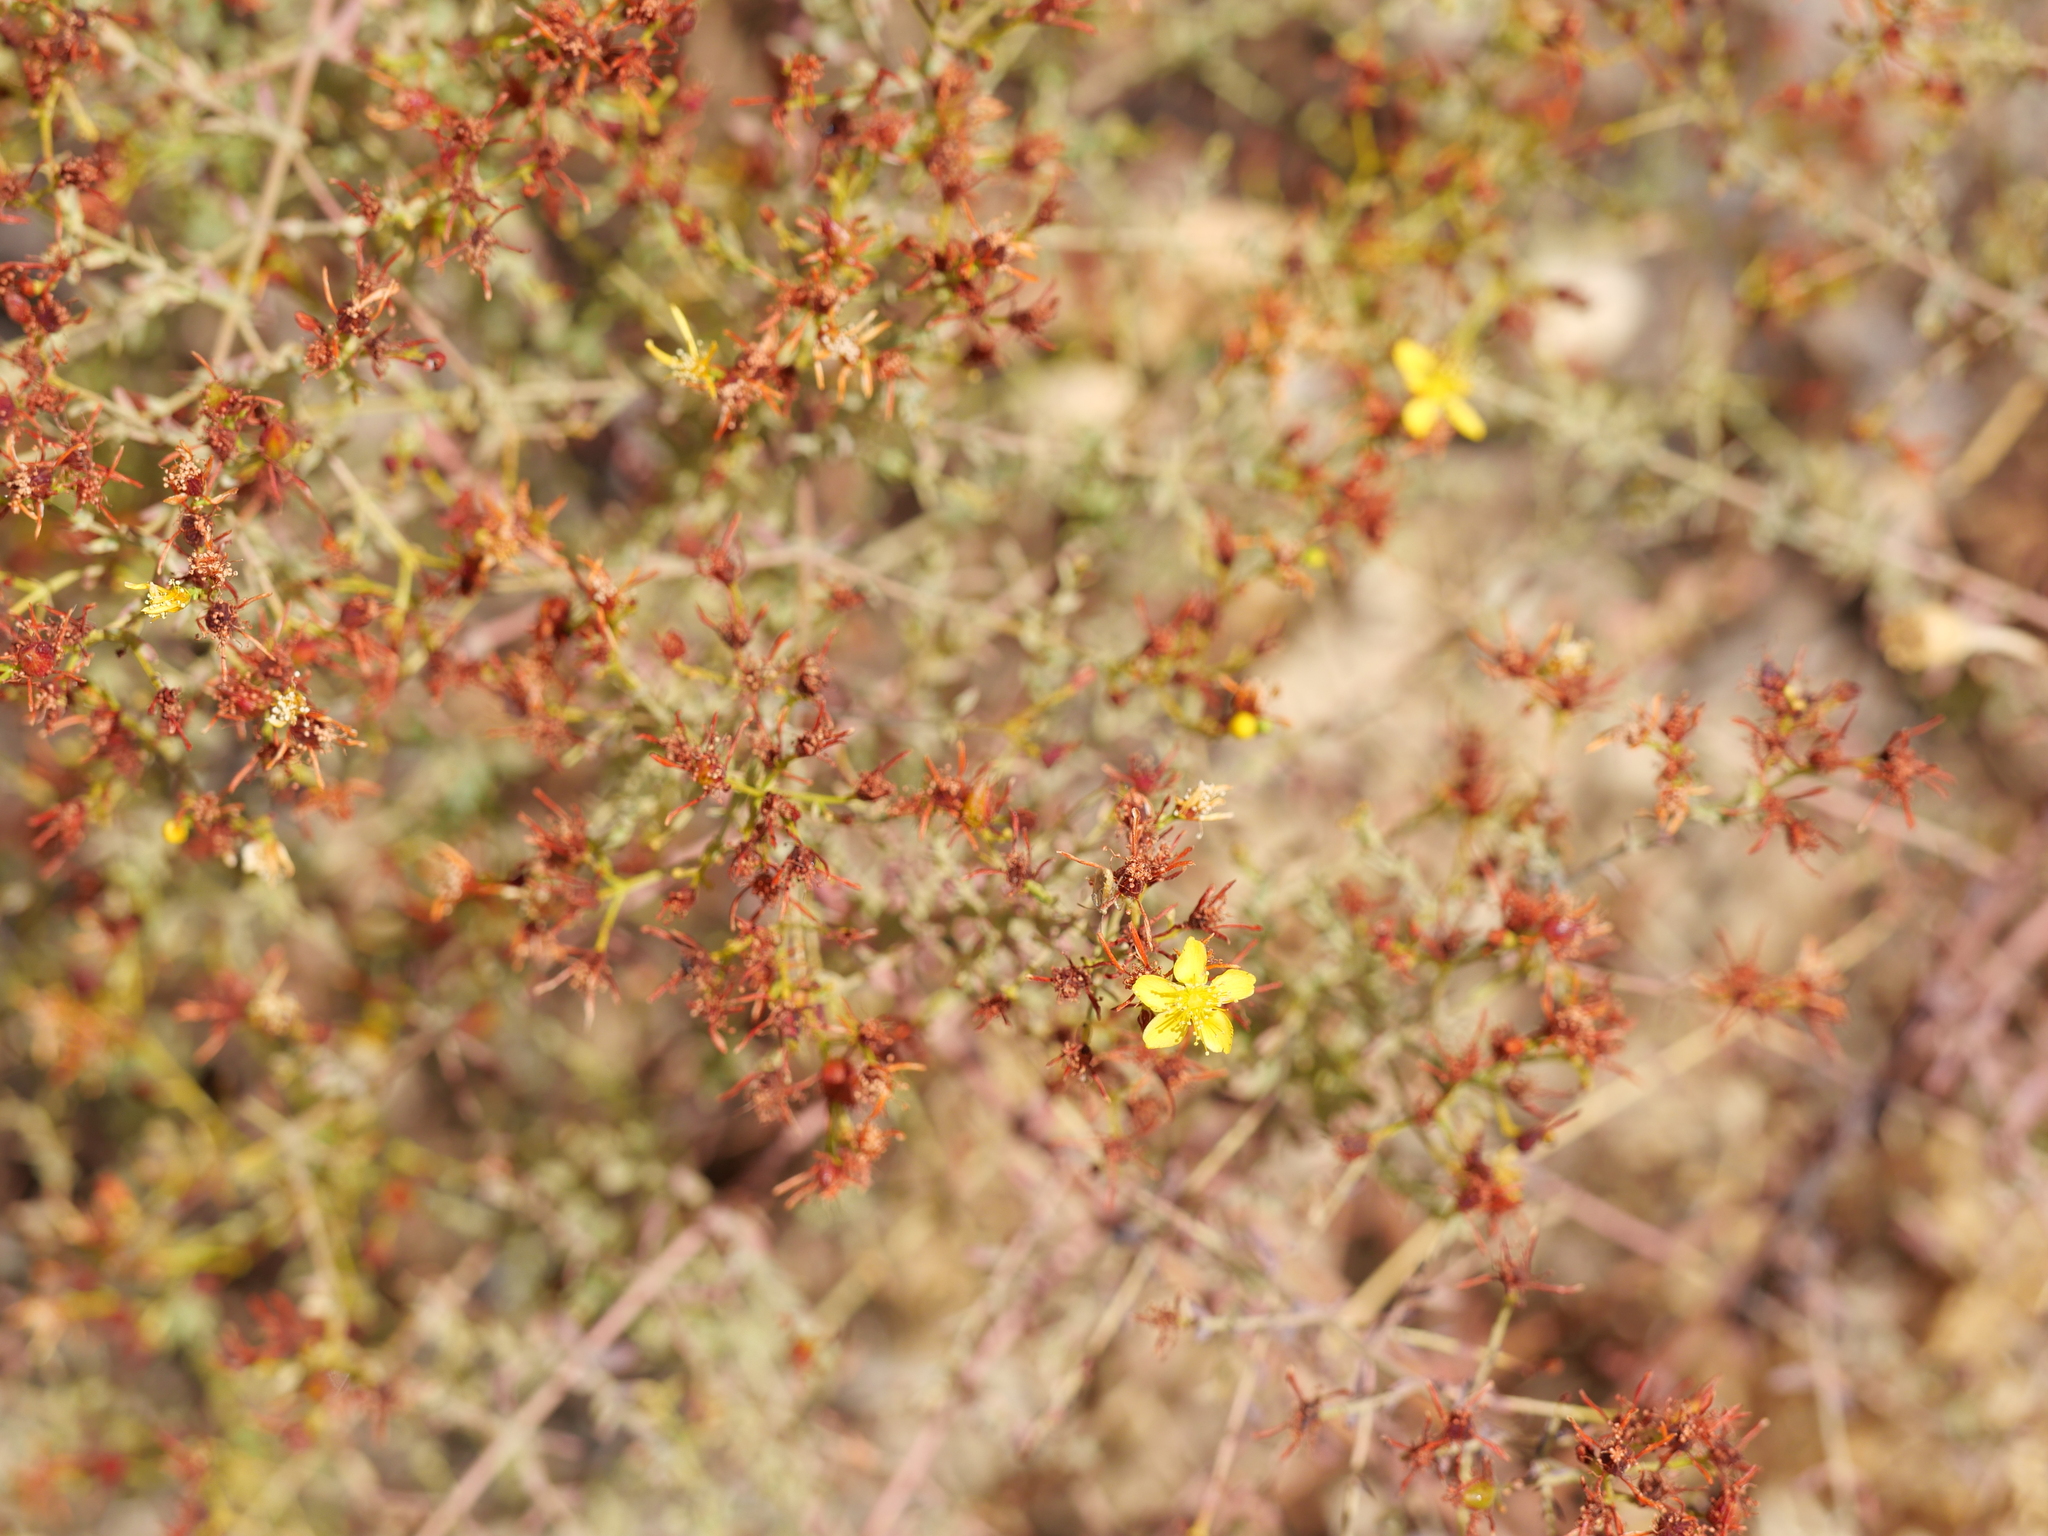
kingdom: Plantae
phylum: Tracheophyta
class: Magnoliopsida
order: Malpighiales
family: Hypericaceae
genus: Hypericum
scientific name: Hypericum triquetrifolium
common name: Tangled hypericum
